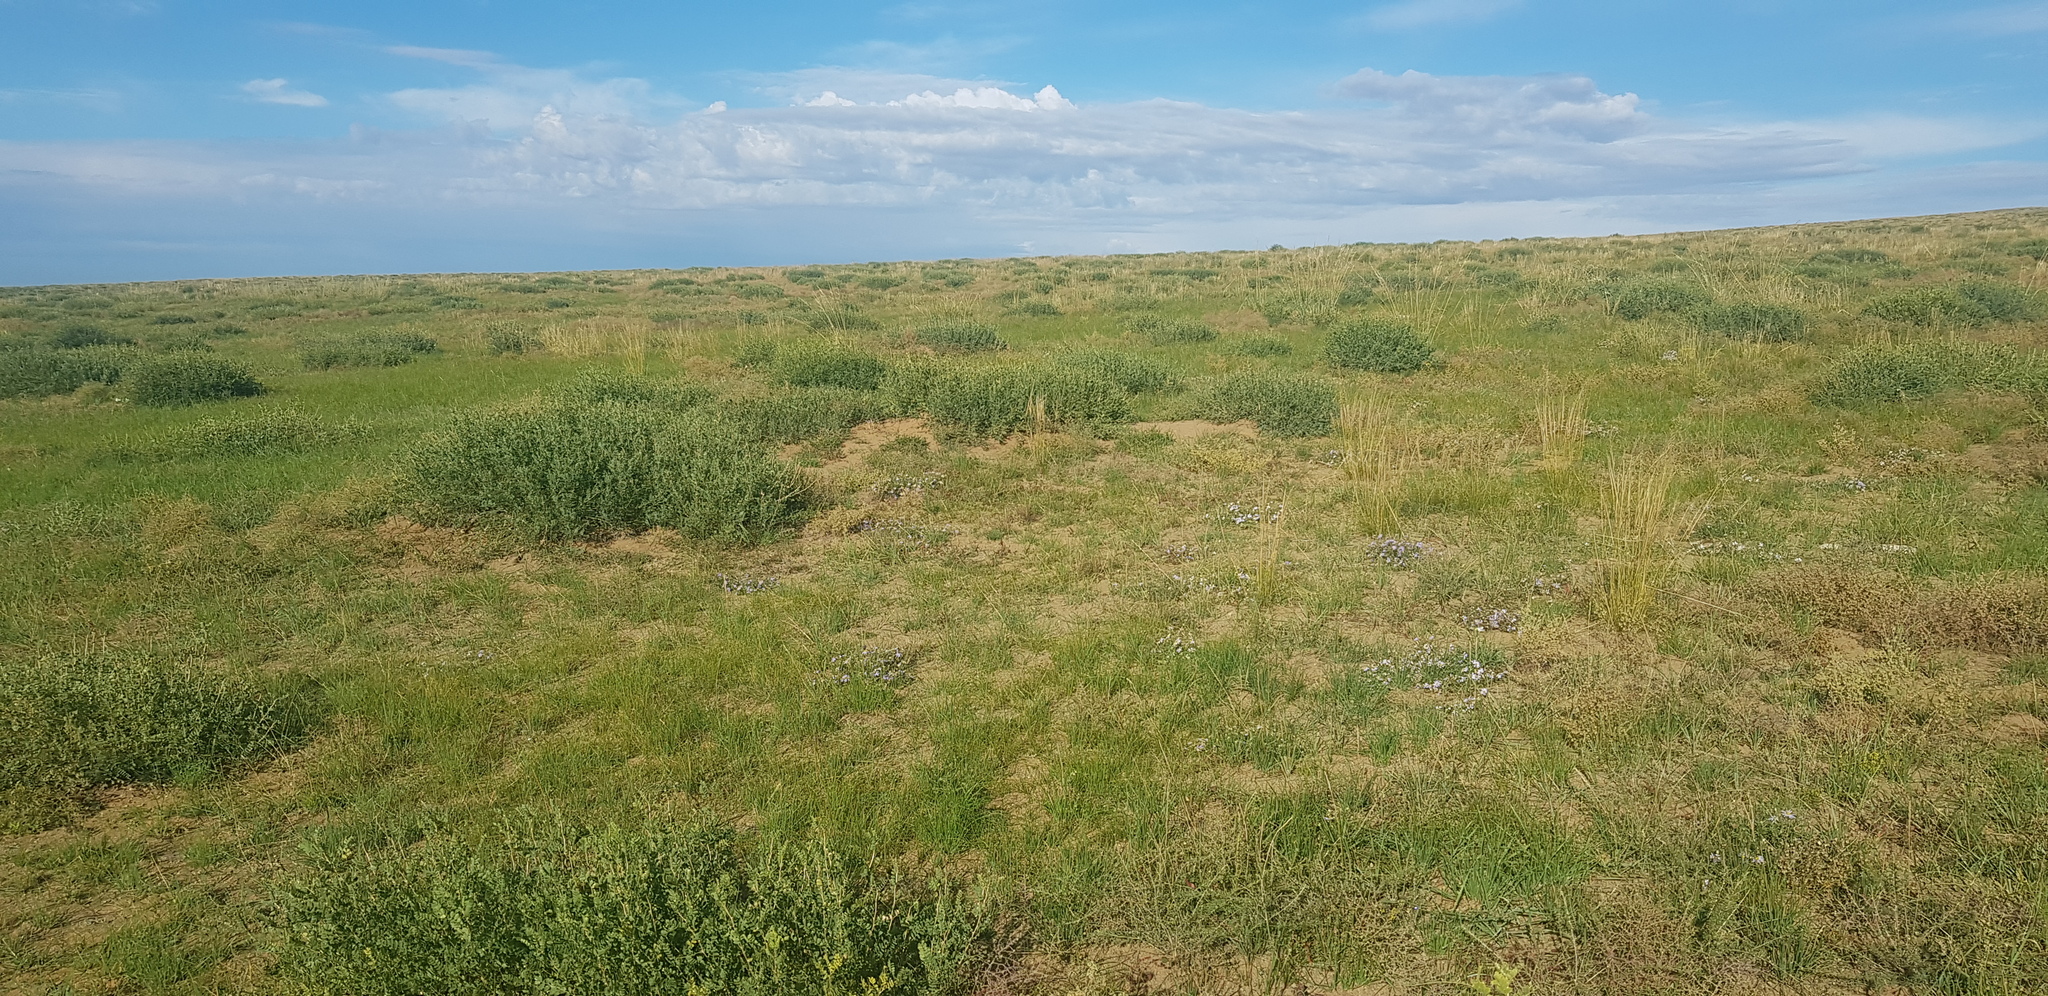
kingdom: Plantae
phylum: Tracheophyta
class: Magnoliopsida
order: Fabales
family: Fabaceae
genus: Caragana
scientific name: Caragana microphylla
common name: Littleleaf peashrub
